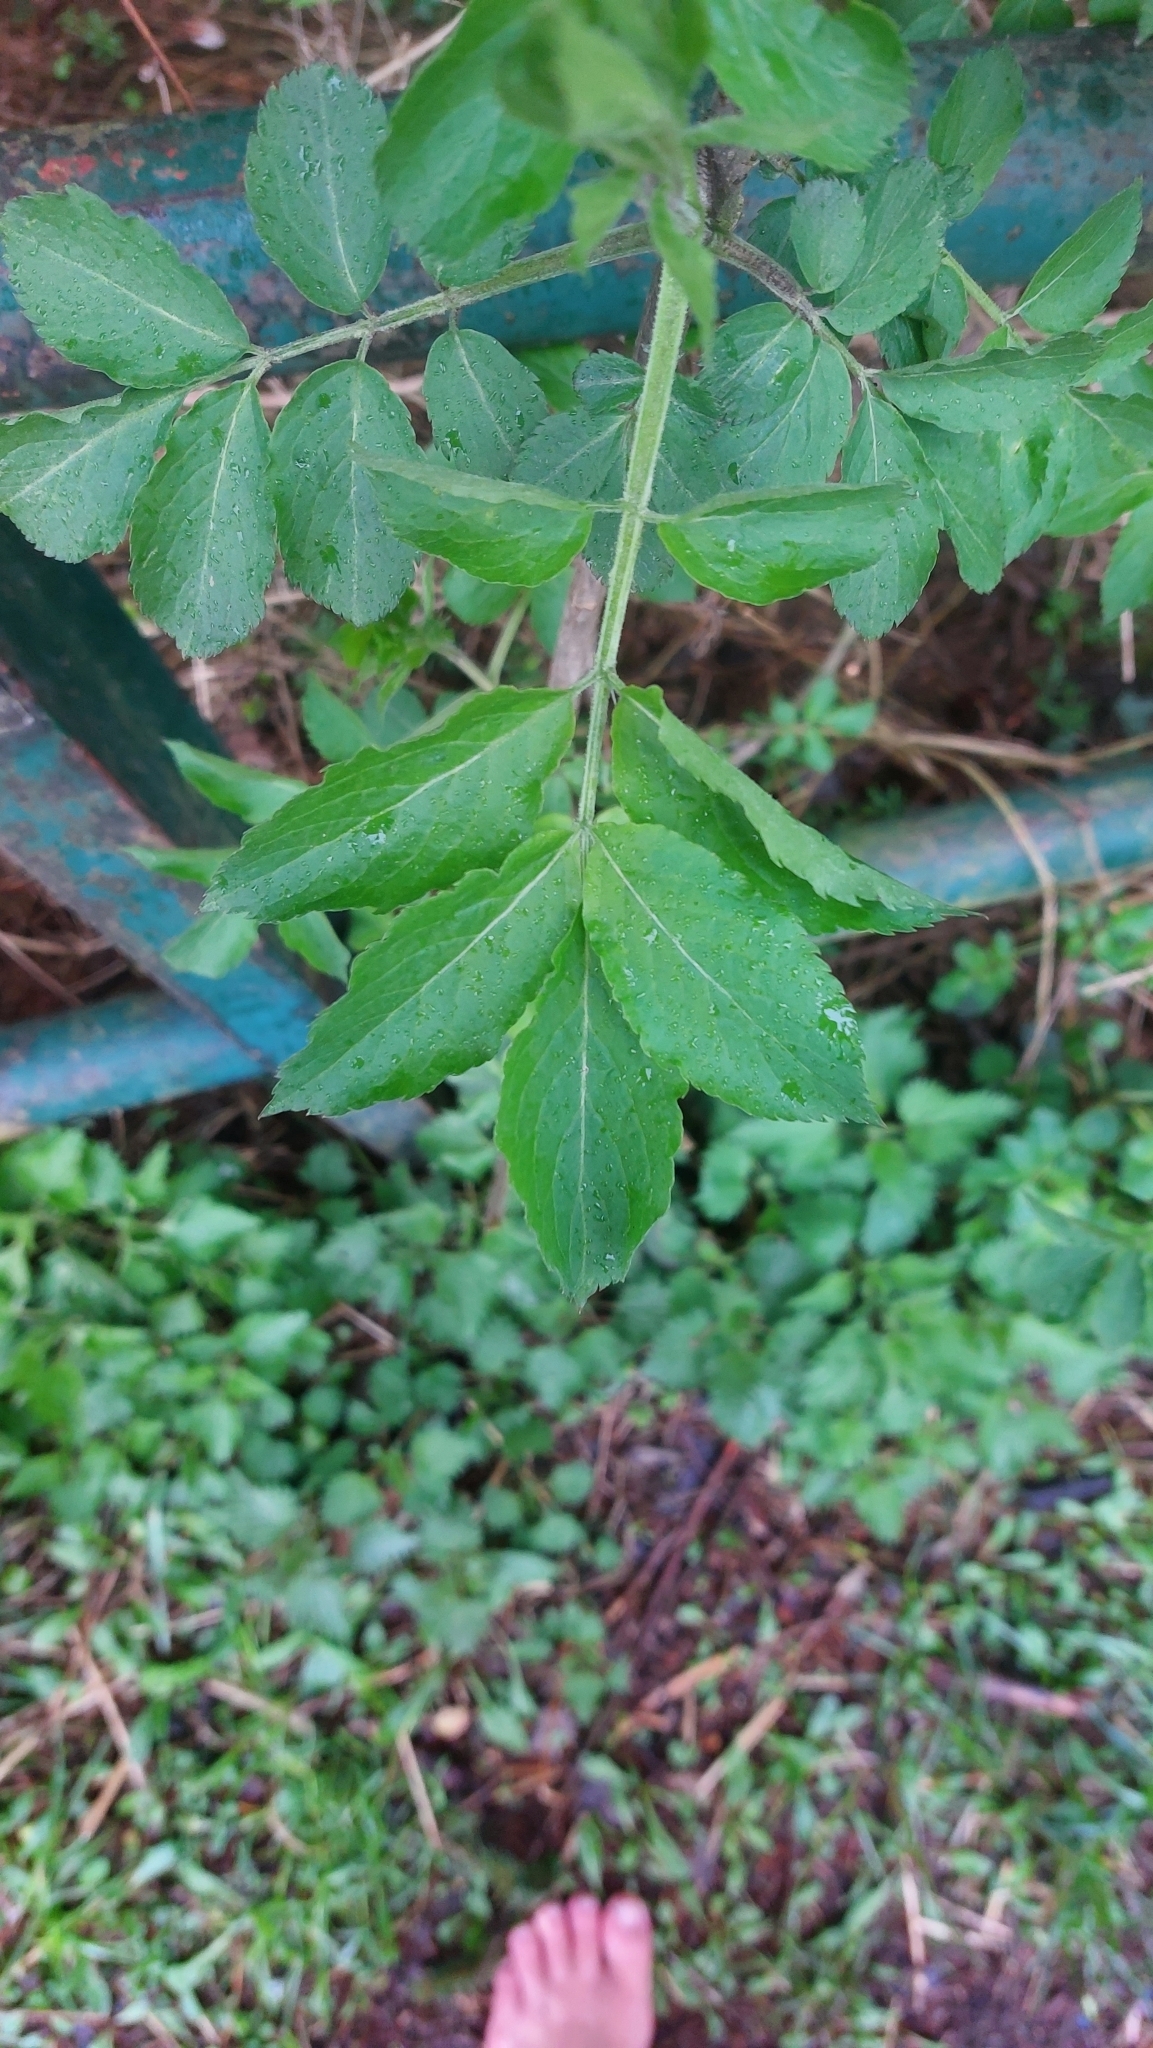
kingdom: Plantae
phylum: Tracheophyta
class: Magnoliopsida
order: Dipsacales
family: Viburnaceae
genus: Sambucus
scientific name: Sambucus nigra
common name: Elder
